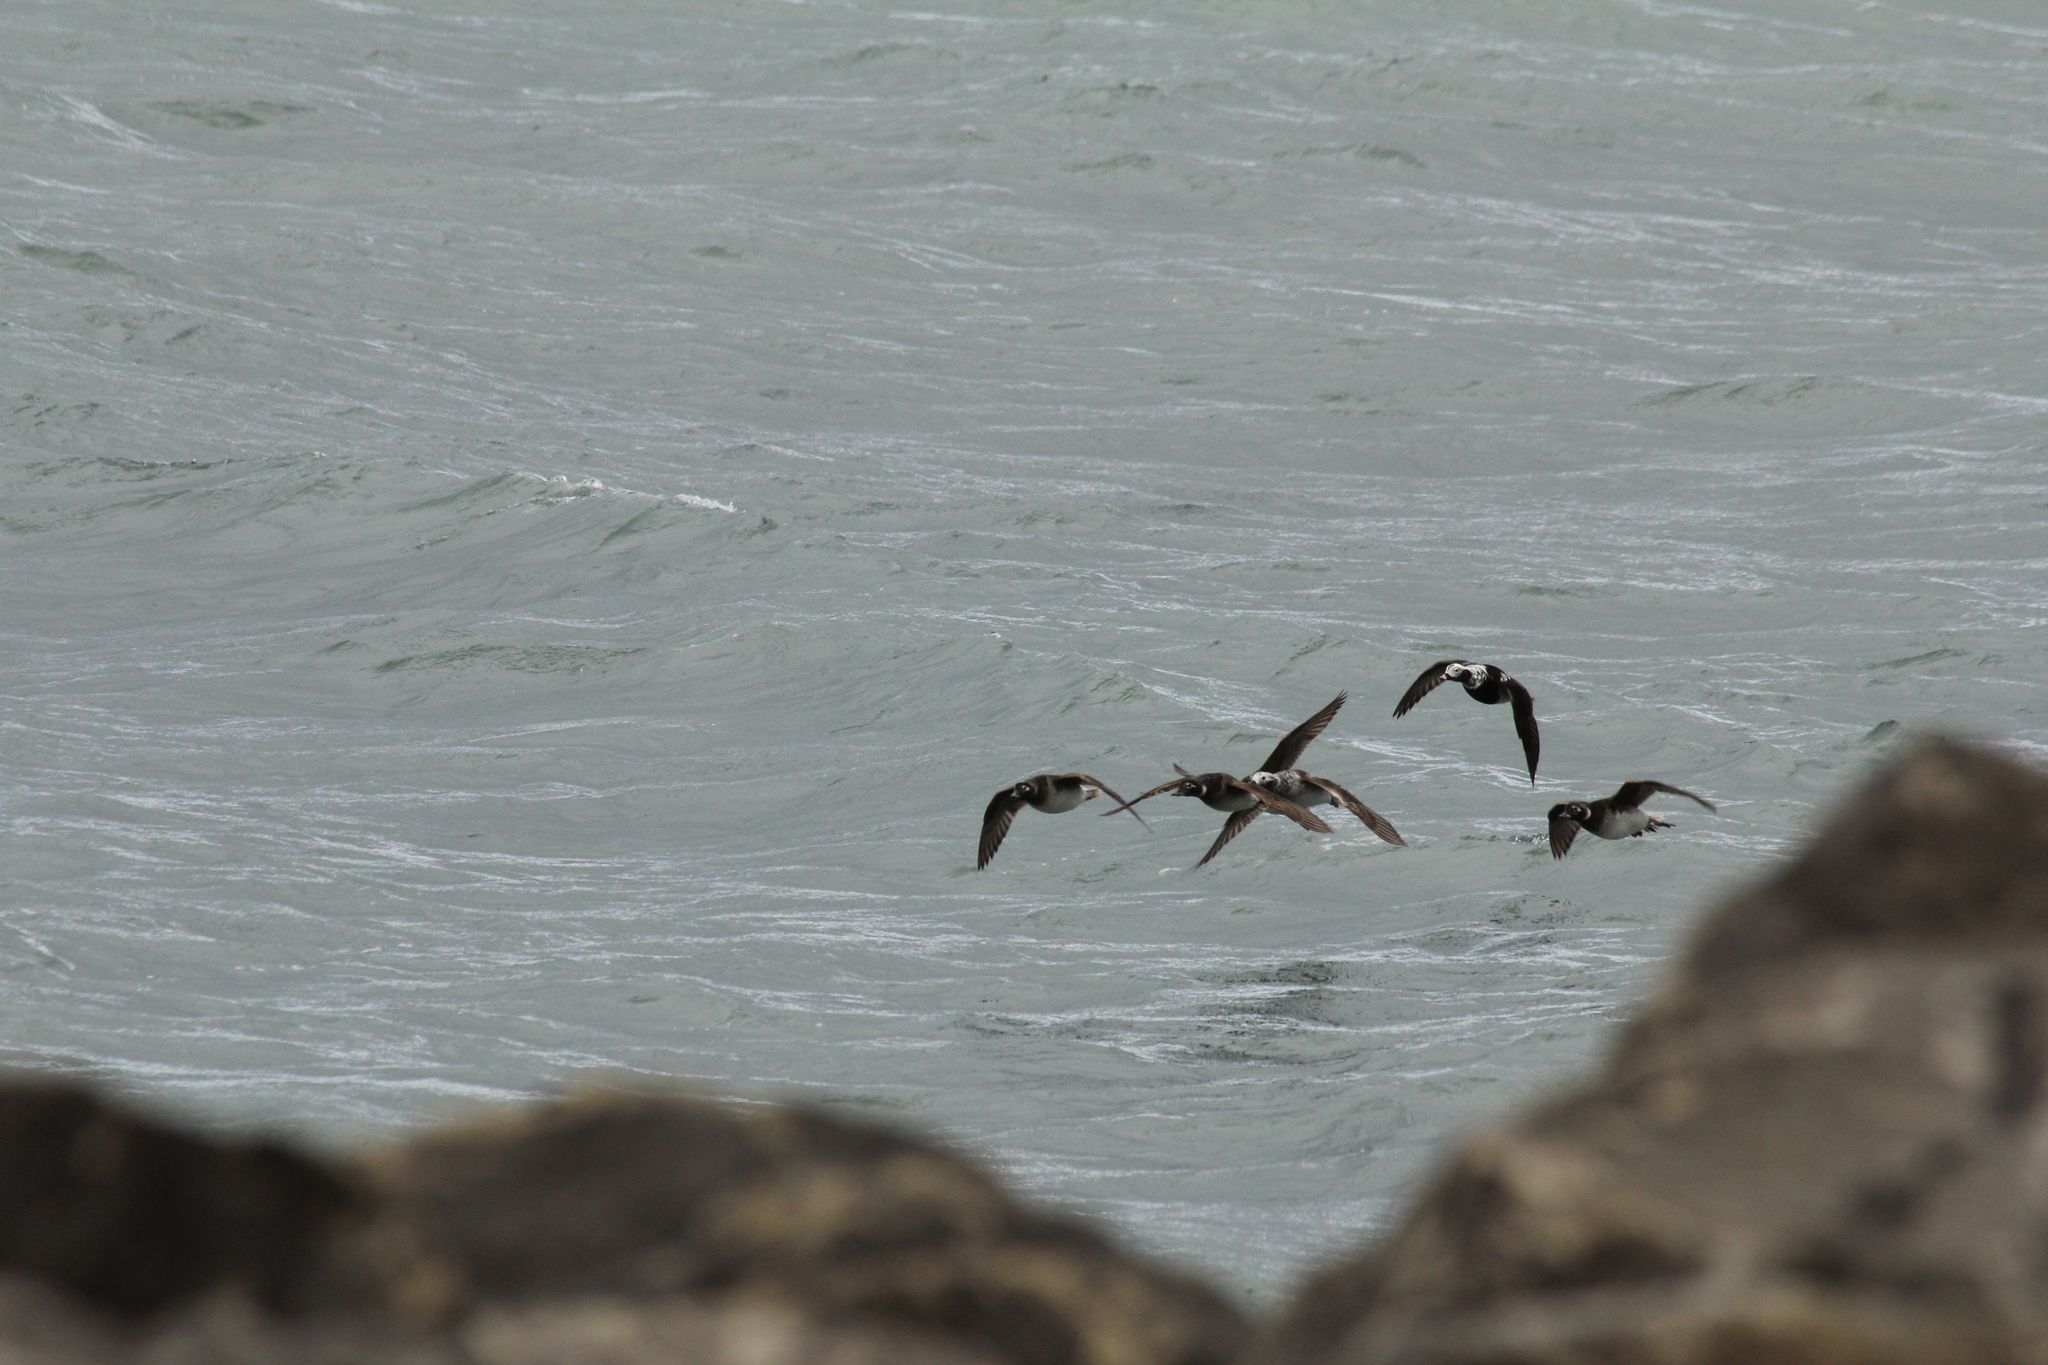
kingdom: Animalia
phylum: Chordata
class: Aves
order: Anseriformes
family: Anatidae
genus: Clangula
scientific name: Clangula hyemalis
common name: Long-tailed duck
